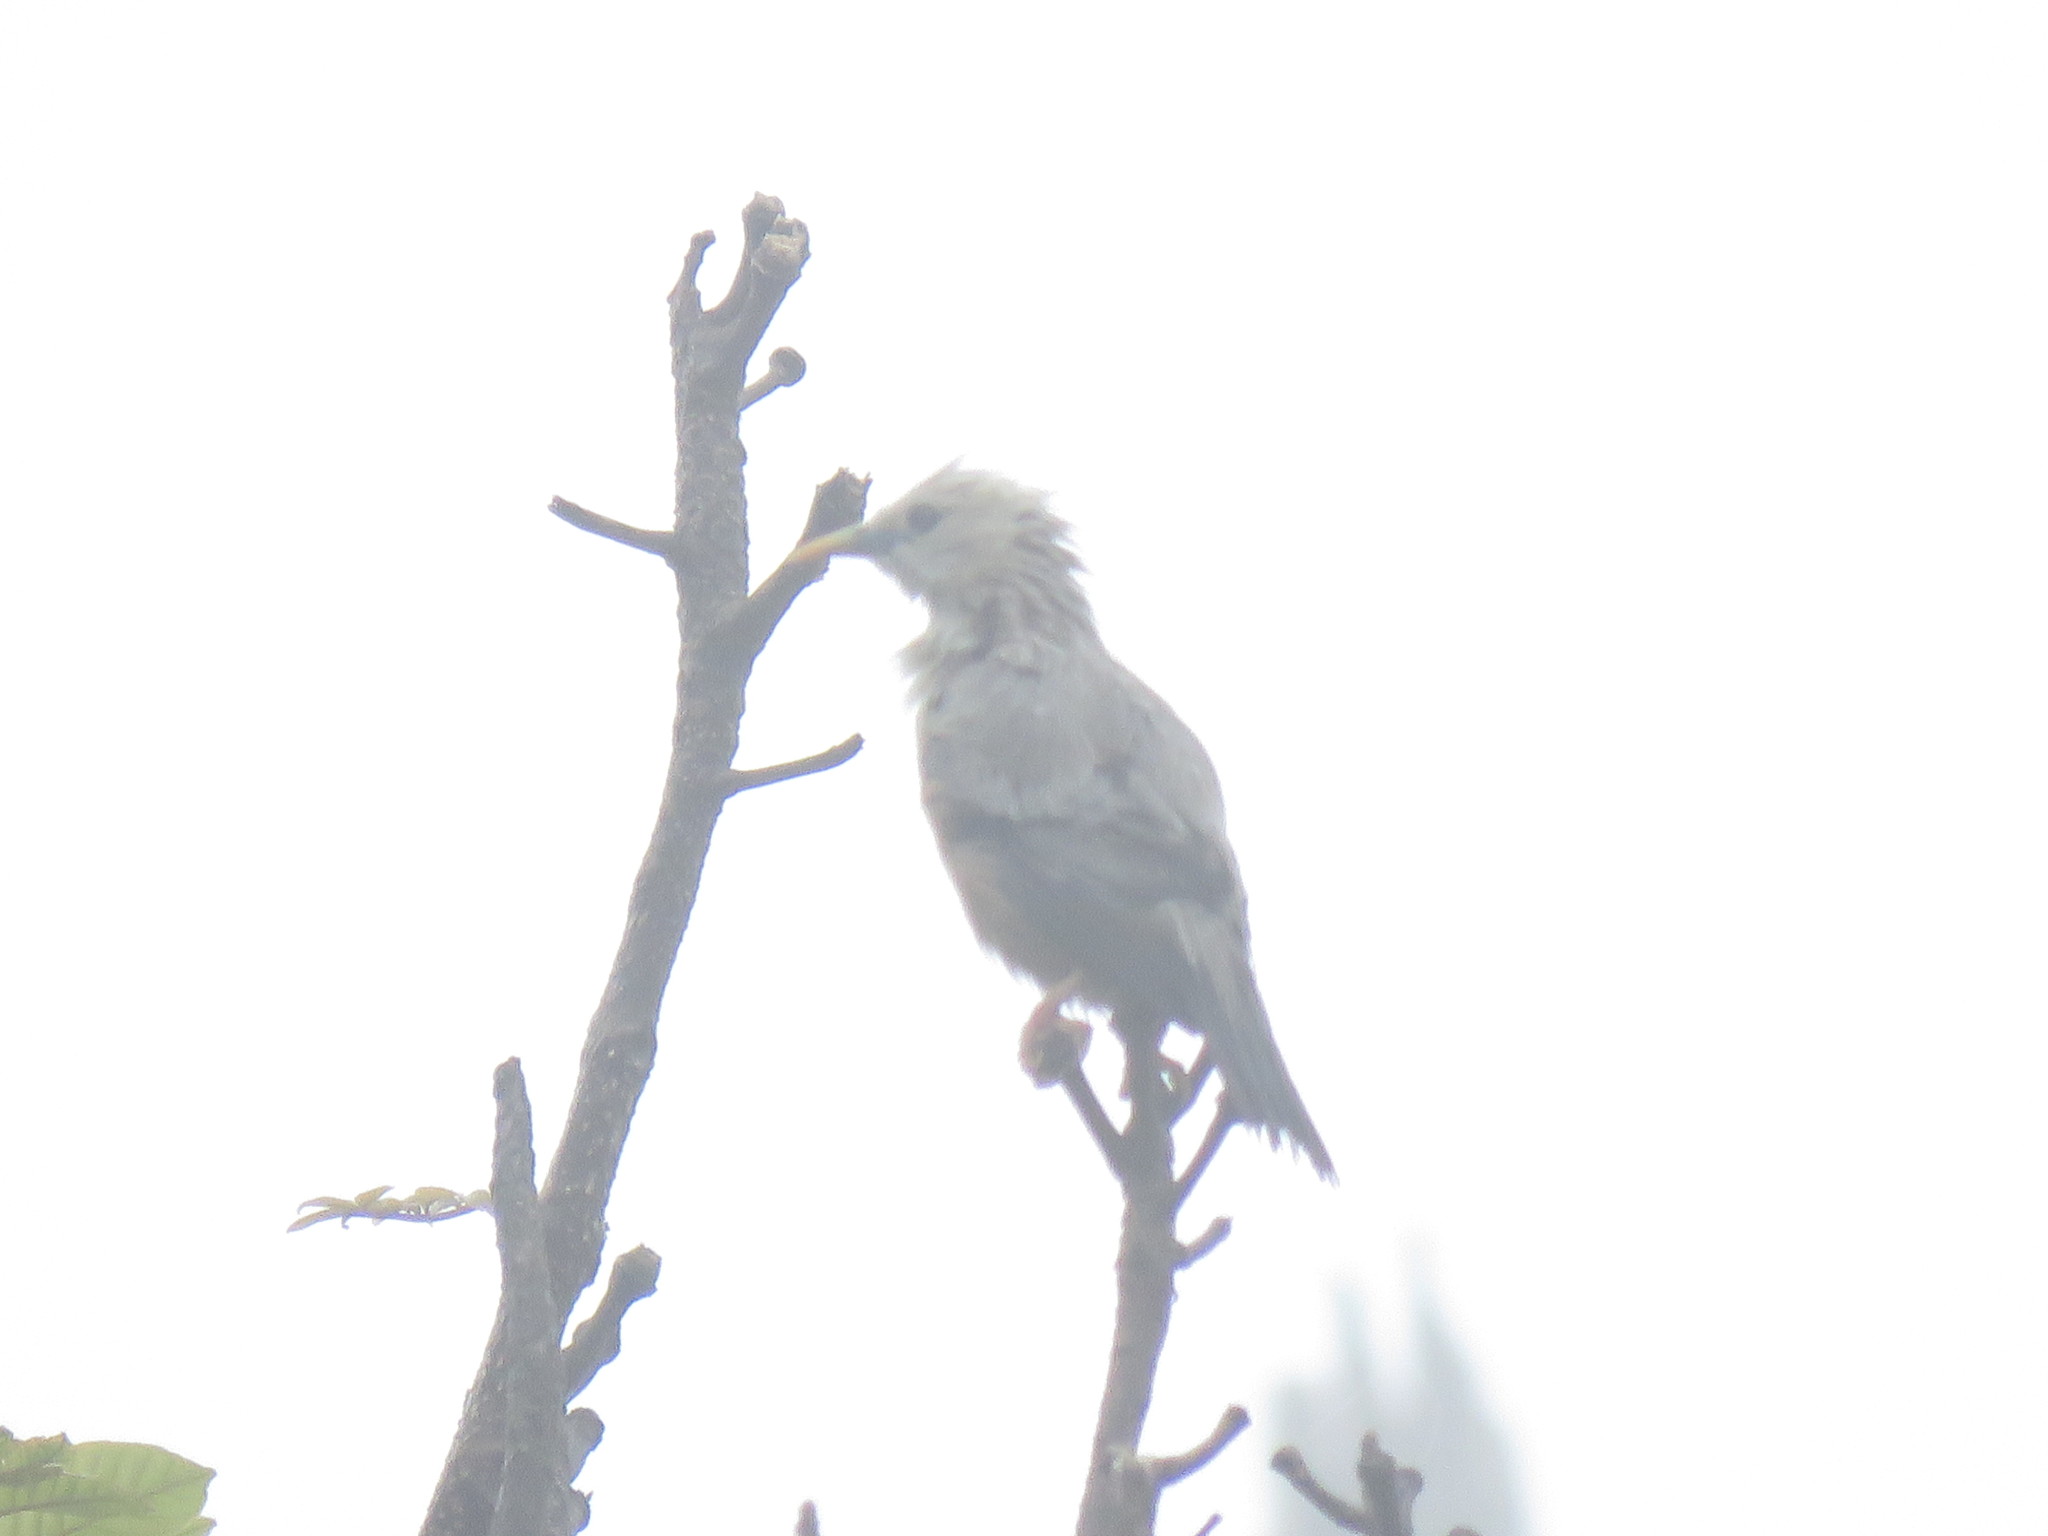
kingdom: Animalia
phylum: Chordata
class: Aves
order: Passeriformes
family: Sturnidae
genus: Sturnia
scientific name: Sturnia blythii
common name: Malabar starling
